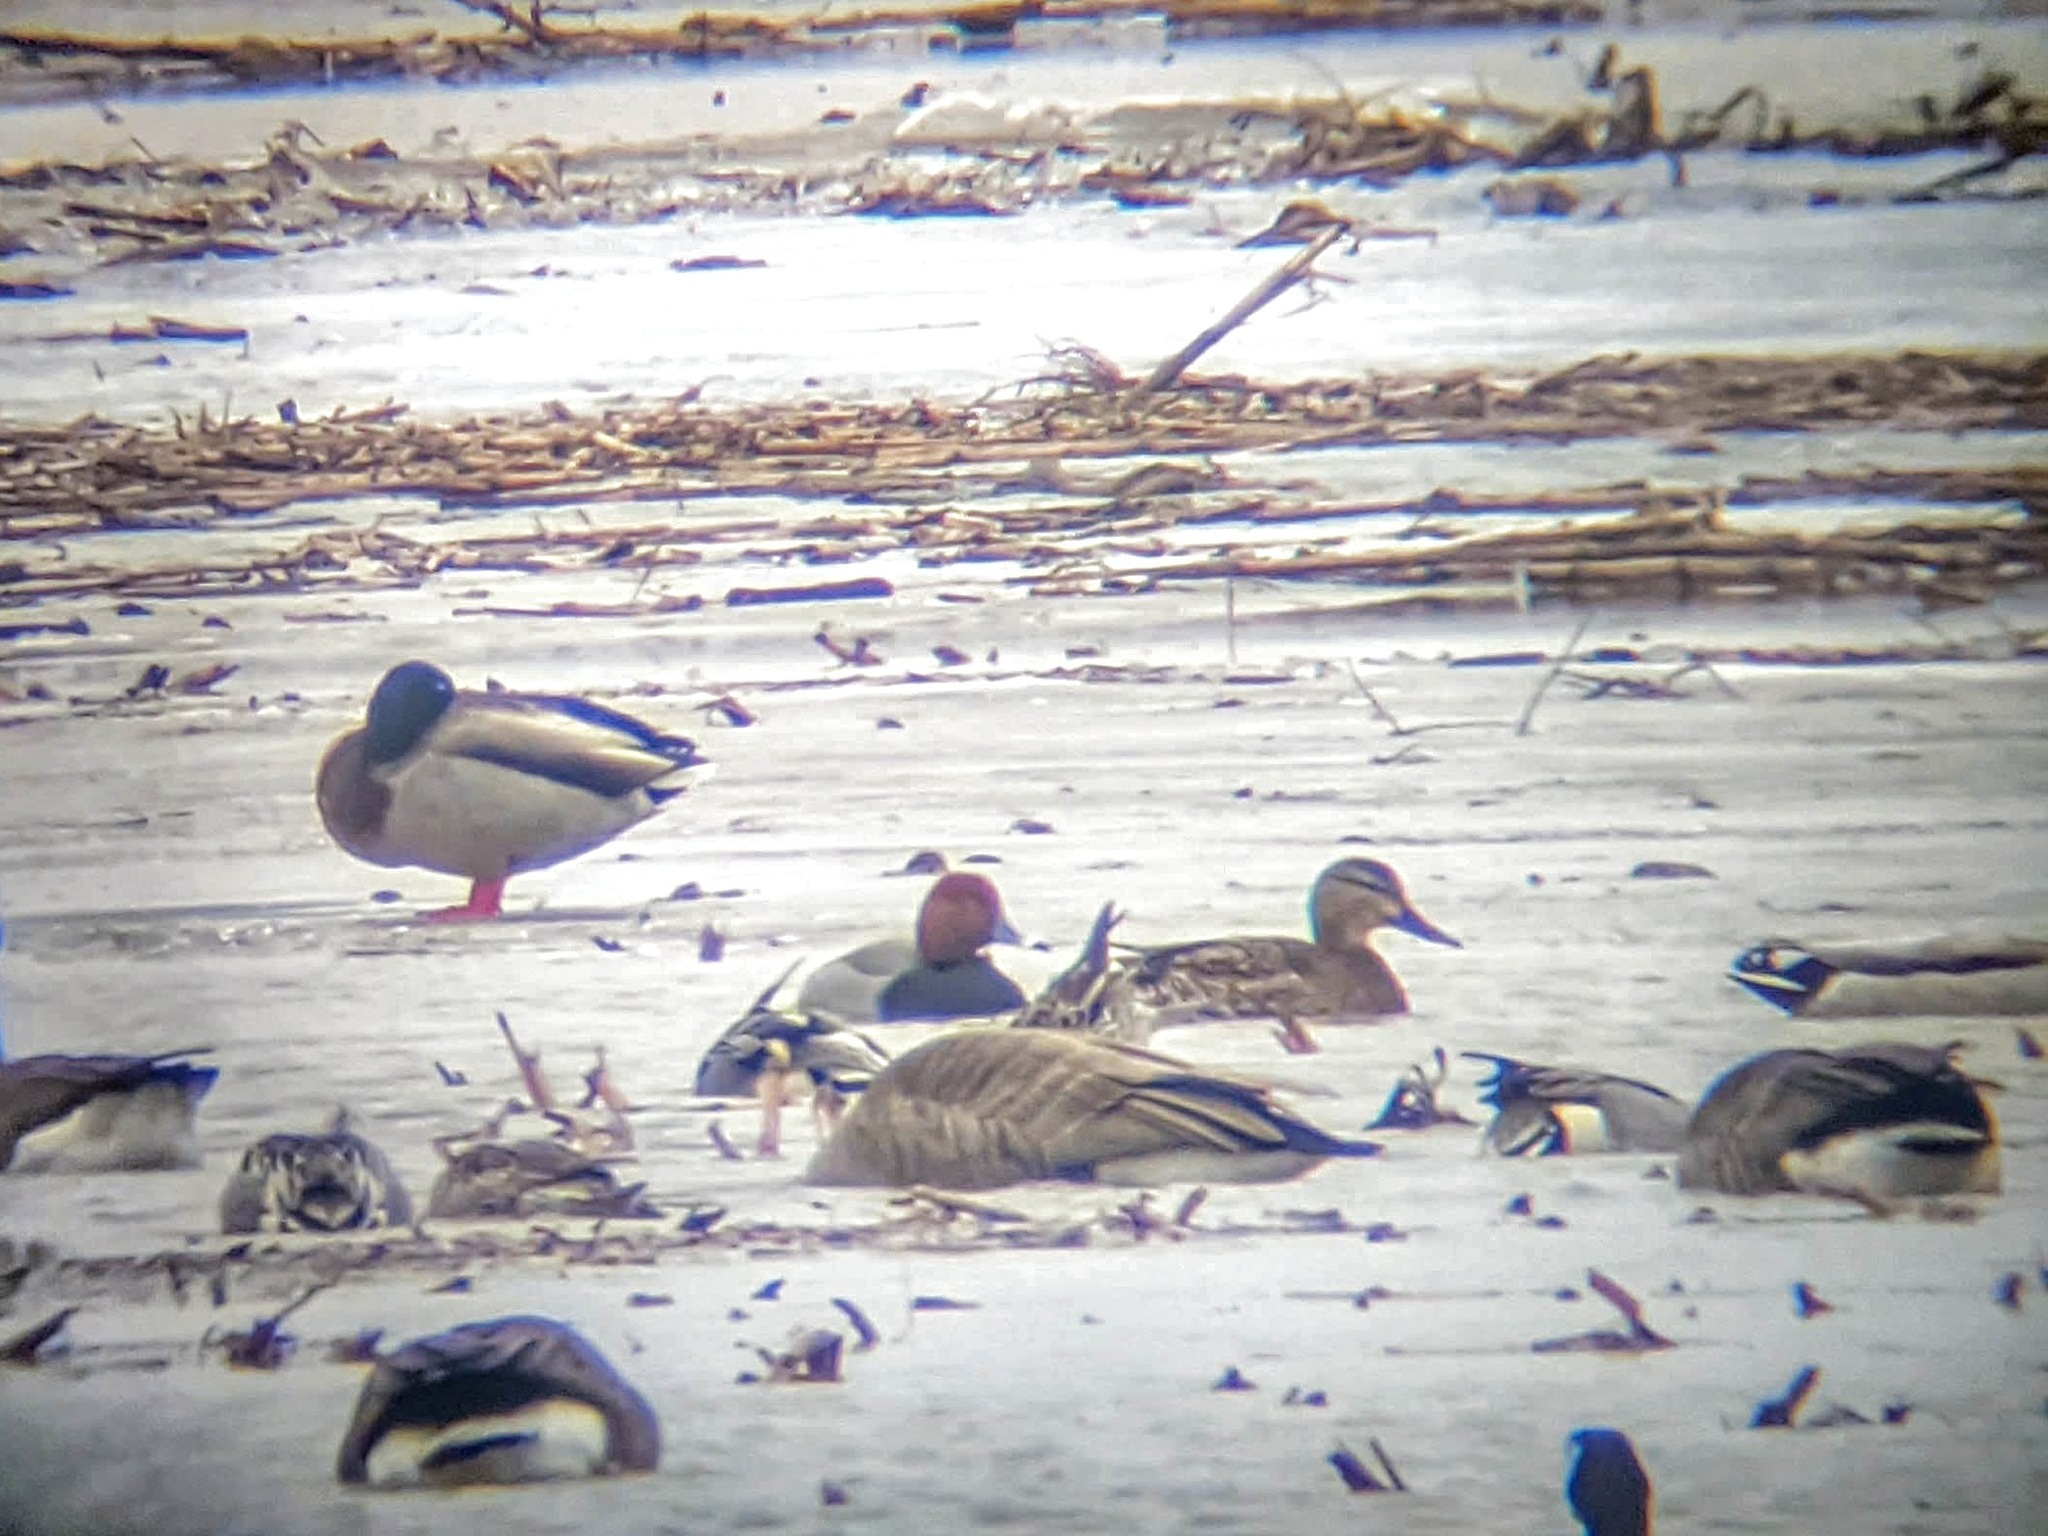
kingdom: Animalia
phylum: Chordata
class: Aves
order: Anseriformes
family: Anatidae
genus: Aythya
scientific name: Aythya americana
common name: Redhead
